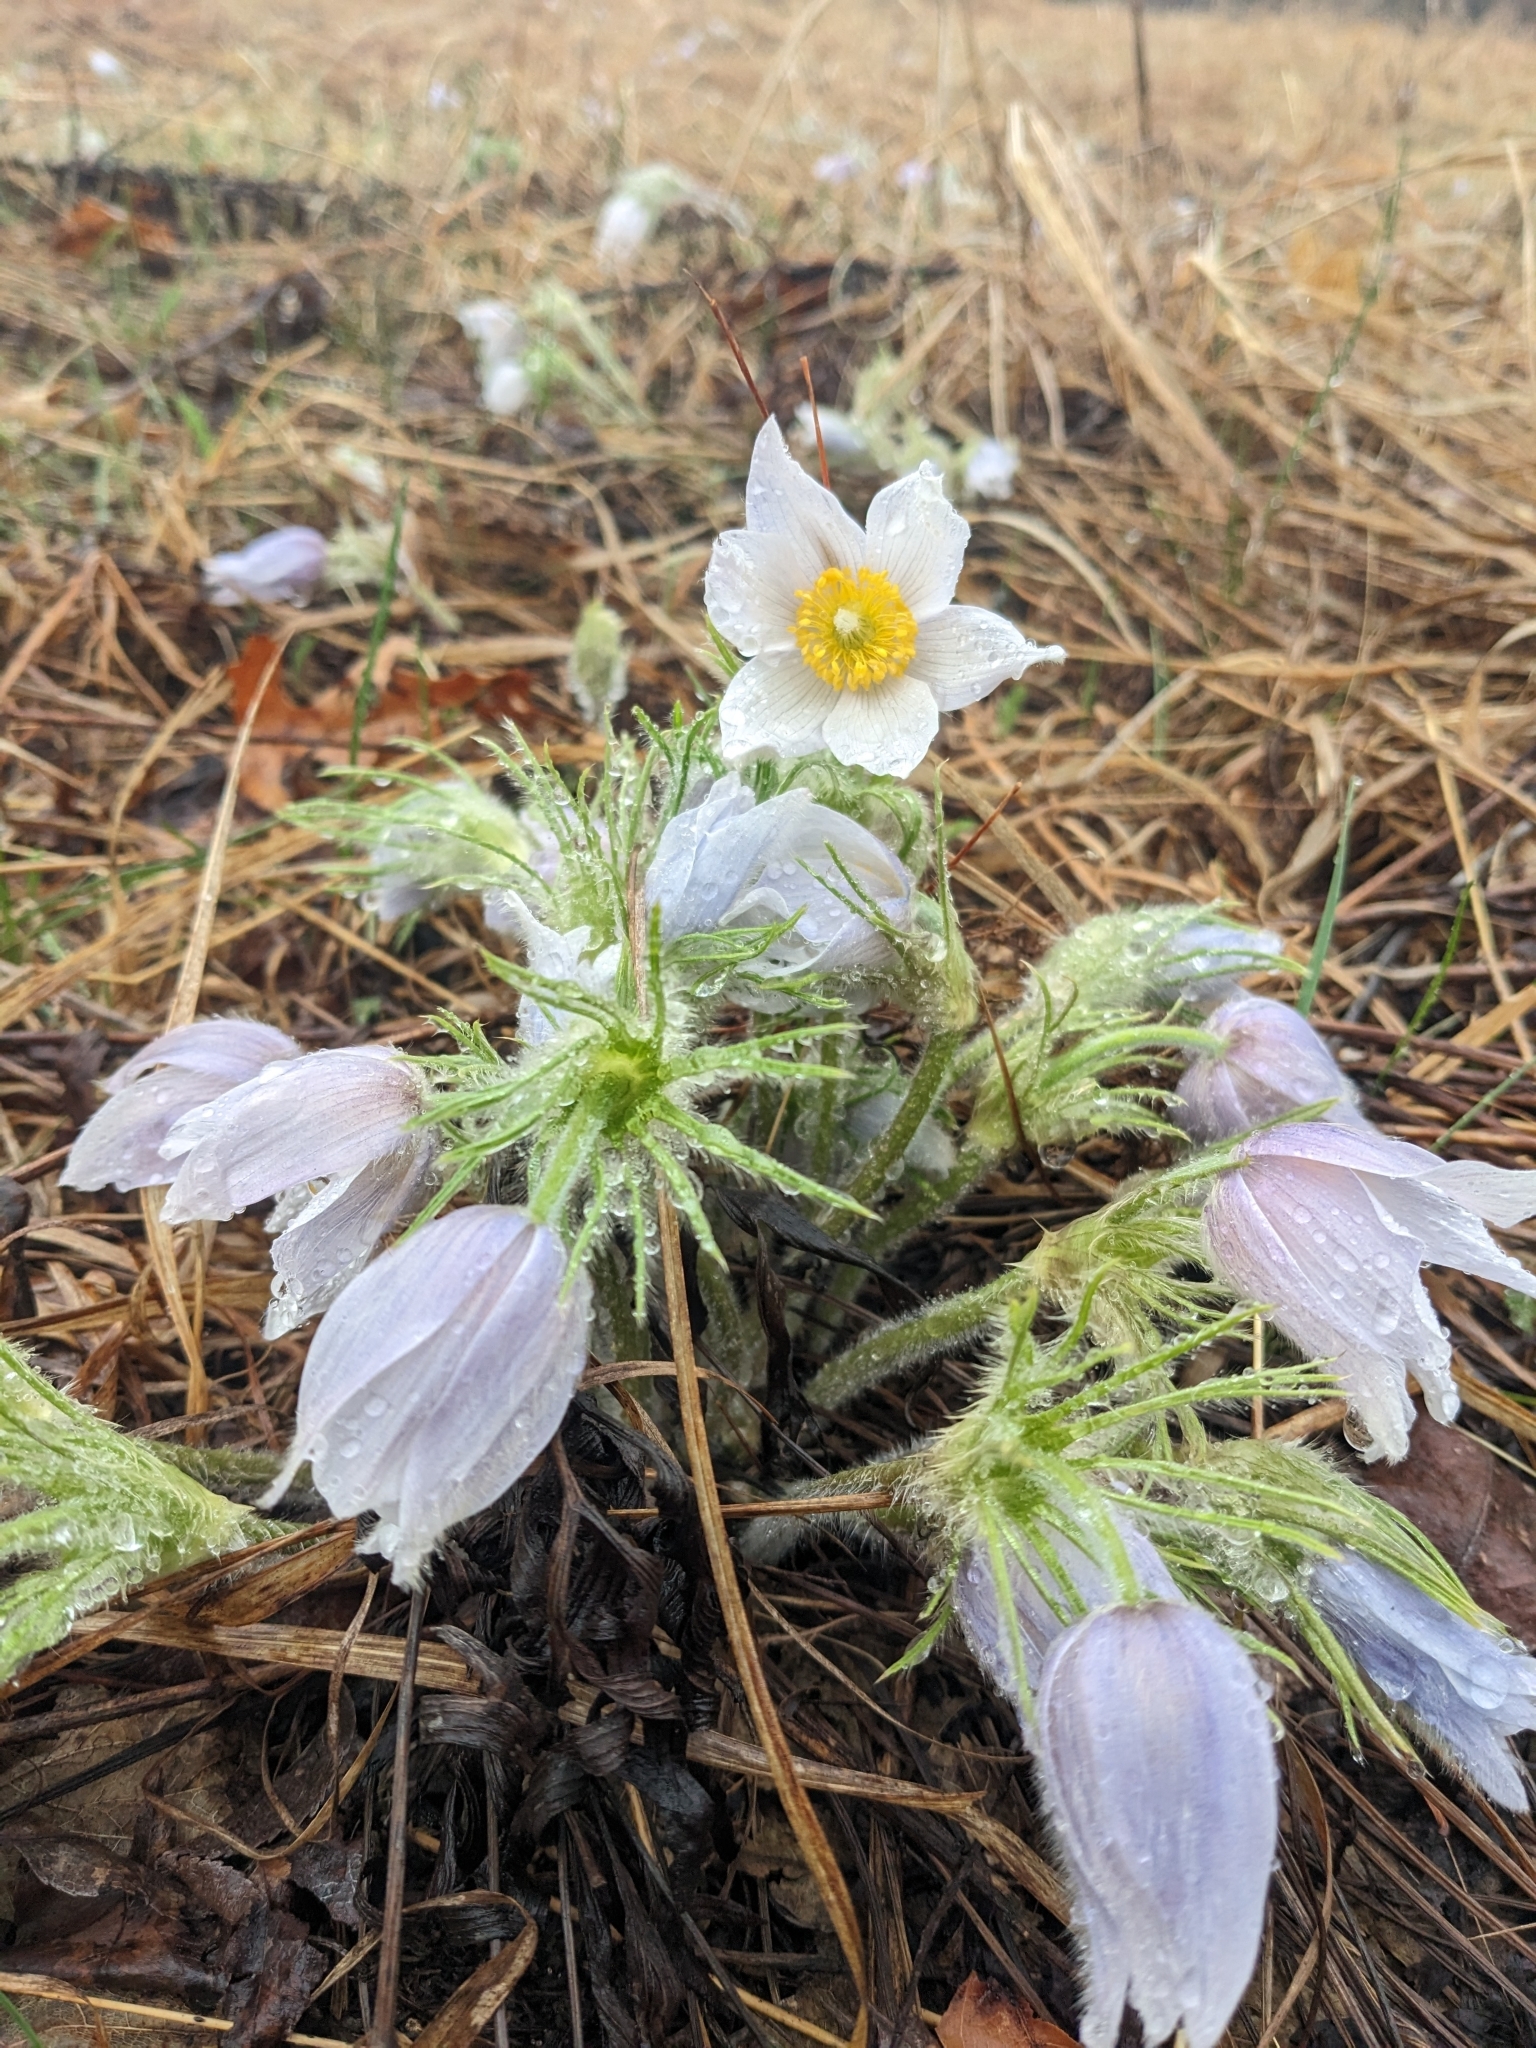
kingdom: Plantae
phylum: Tracheophyta
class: Magnoliopsida
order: Ranunculales
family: Ranunculaceae
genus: Pulsatilla
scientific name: Pulsatilla nuttalliana
